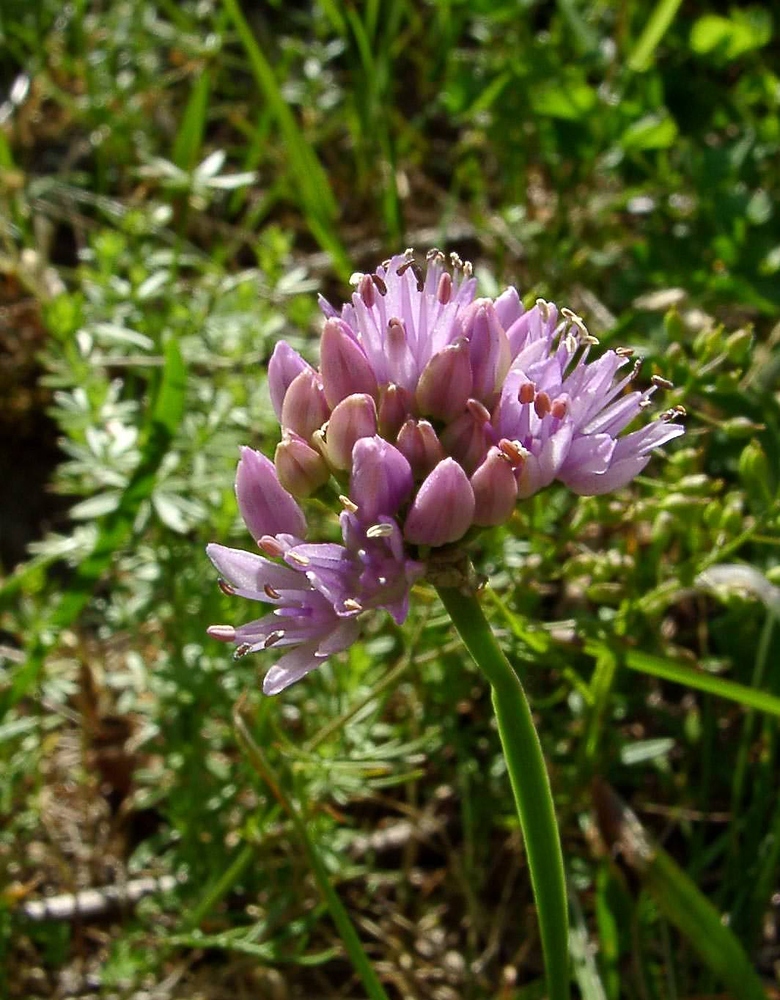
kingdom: Plantae
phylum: Tracheophyta
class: Liliopsida
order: Asparagales
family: Amaryllidaceae
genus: Allium
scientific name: Allium lusitanicum
